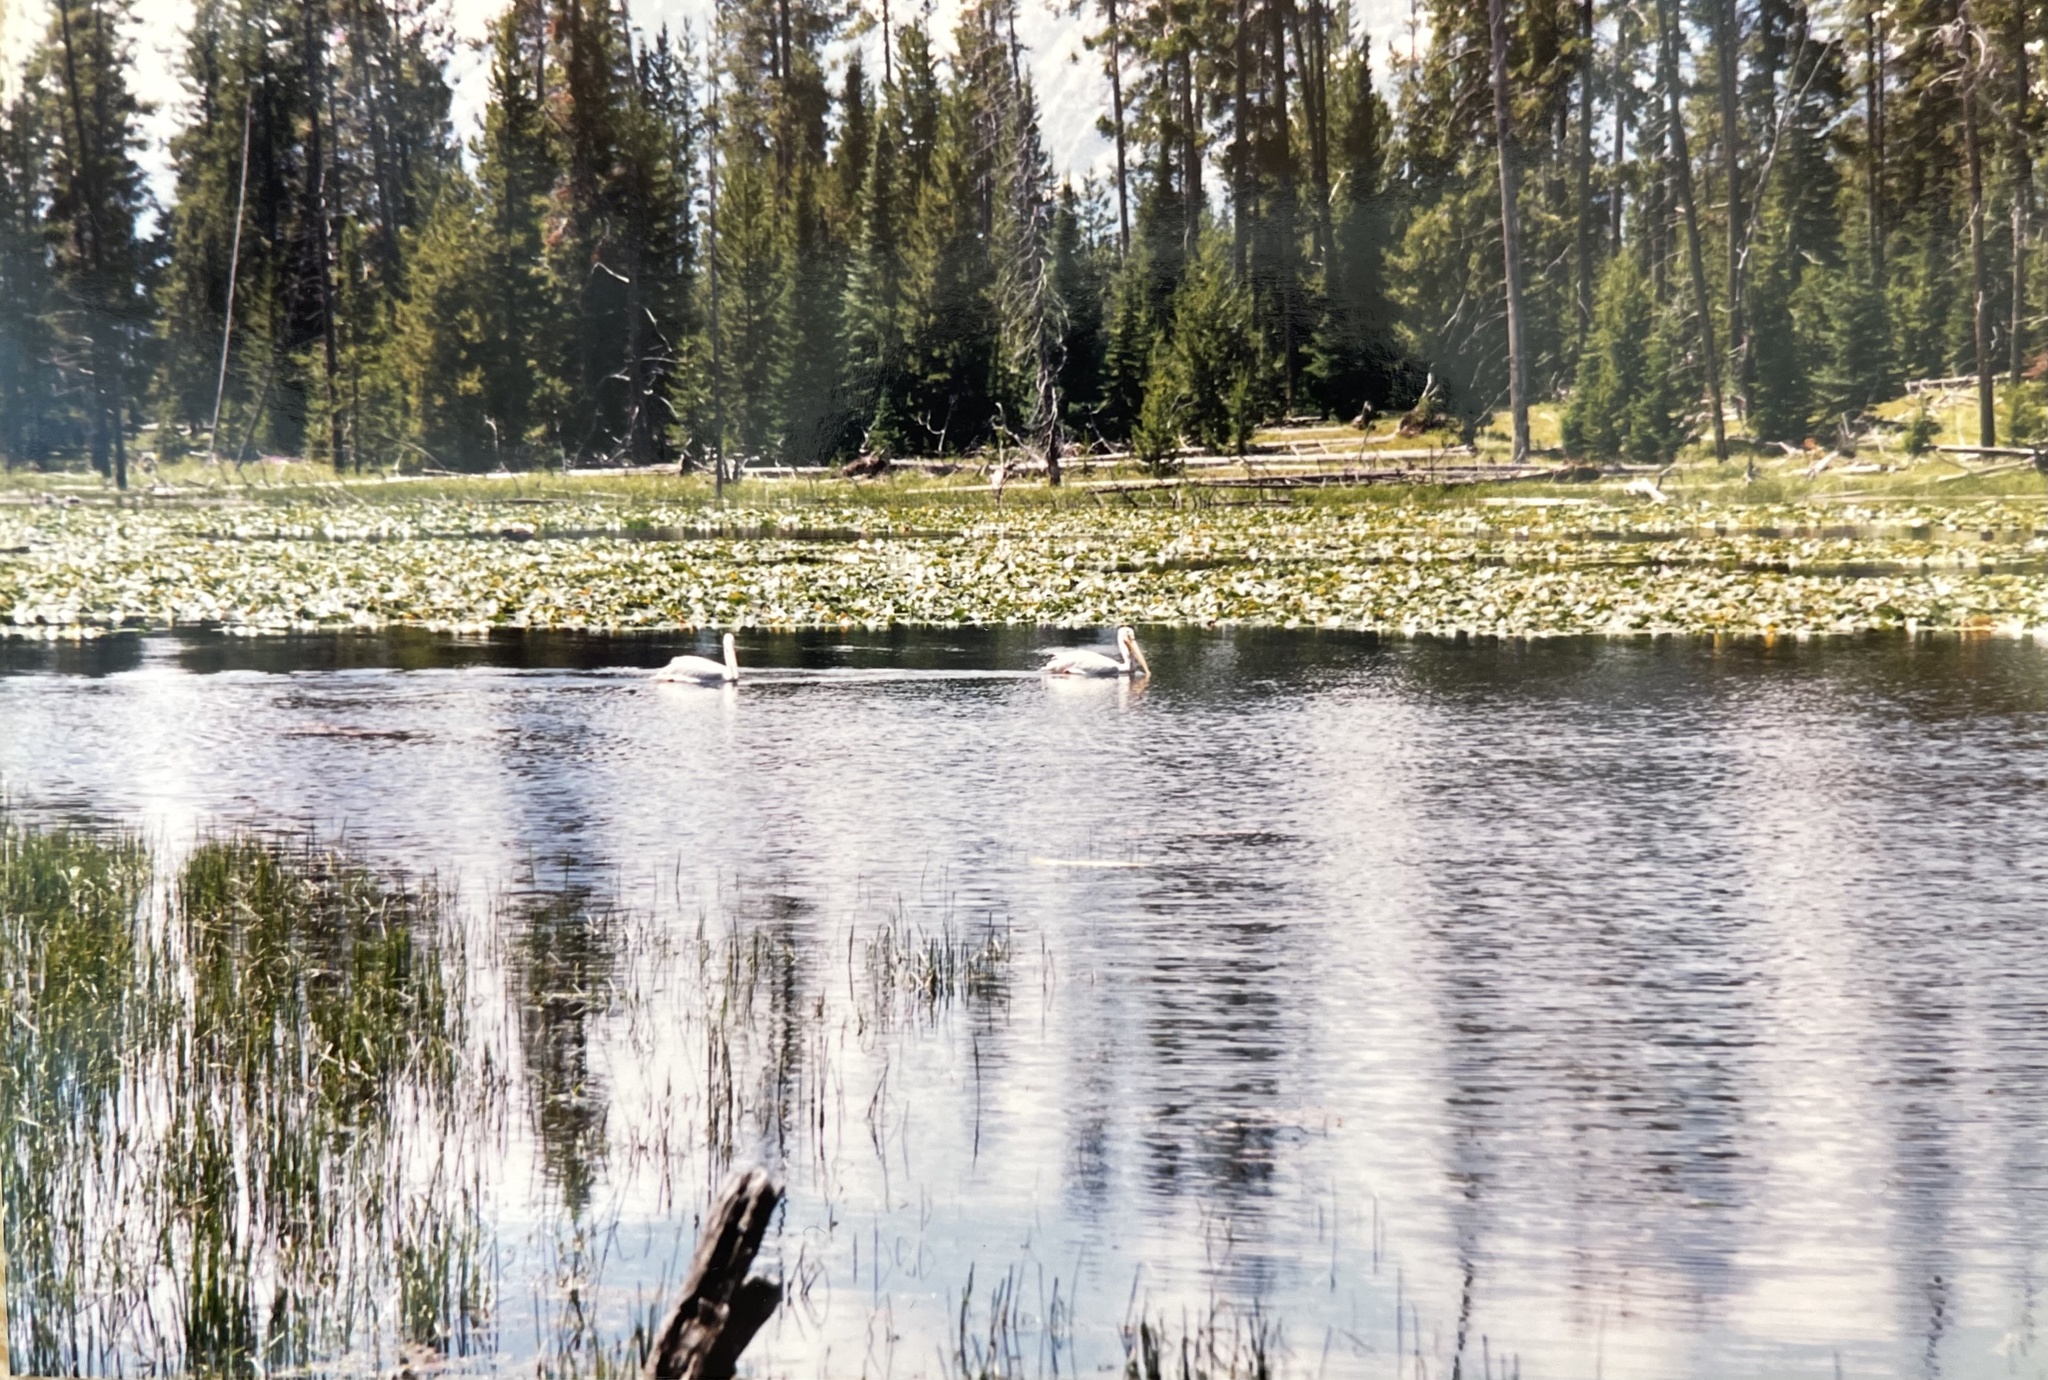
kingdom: Animalia
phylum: Chordata
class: Aves
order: Pelecaniformes
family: Pelecanidae
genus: Pelecanus
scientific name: Pelecanus erythrorhynchos
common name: American white pelican
